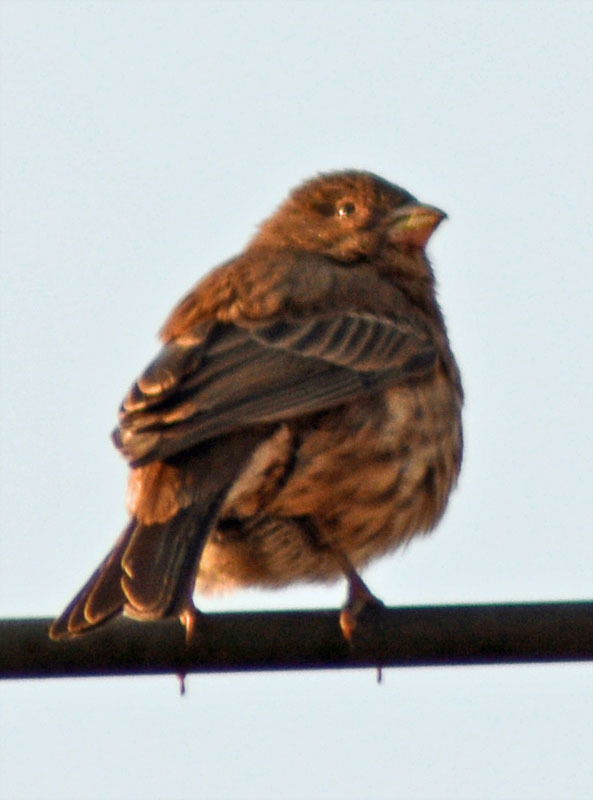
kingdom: Animalia
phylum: Chordata
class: Aves
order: Passeriformes
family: Fringillidae
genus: Haemorhous
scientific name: Haemorhous mexicanus
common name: House finch
